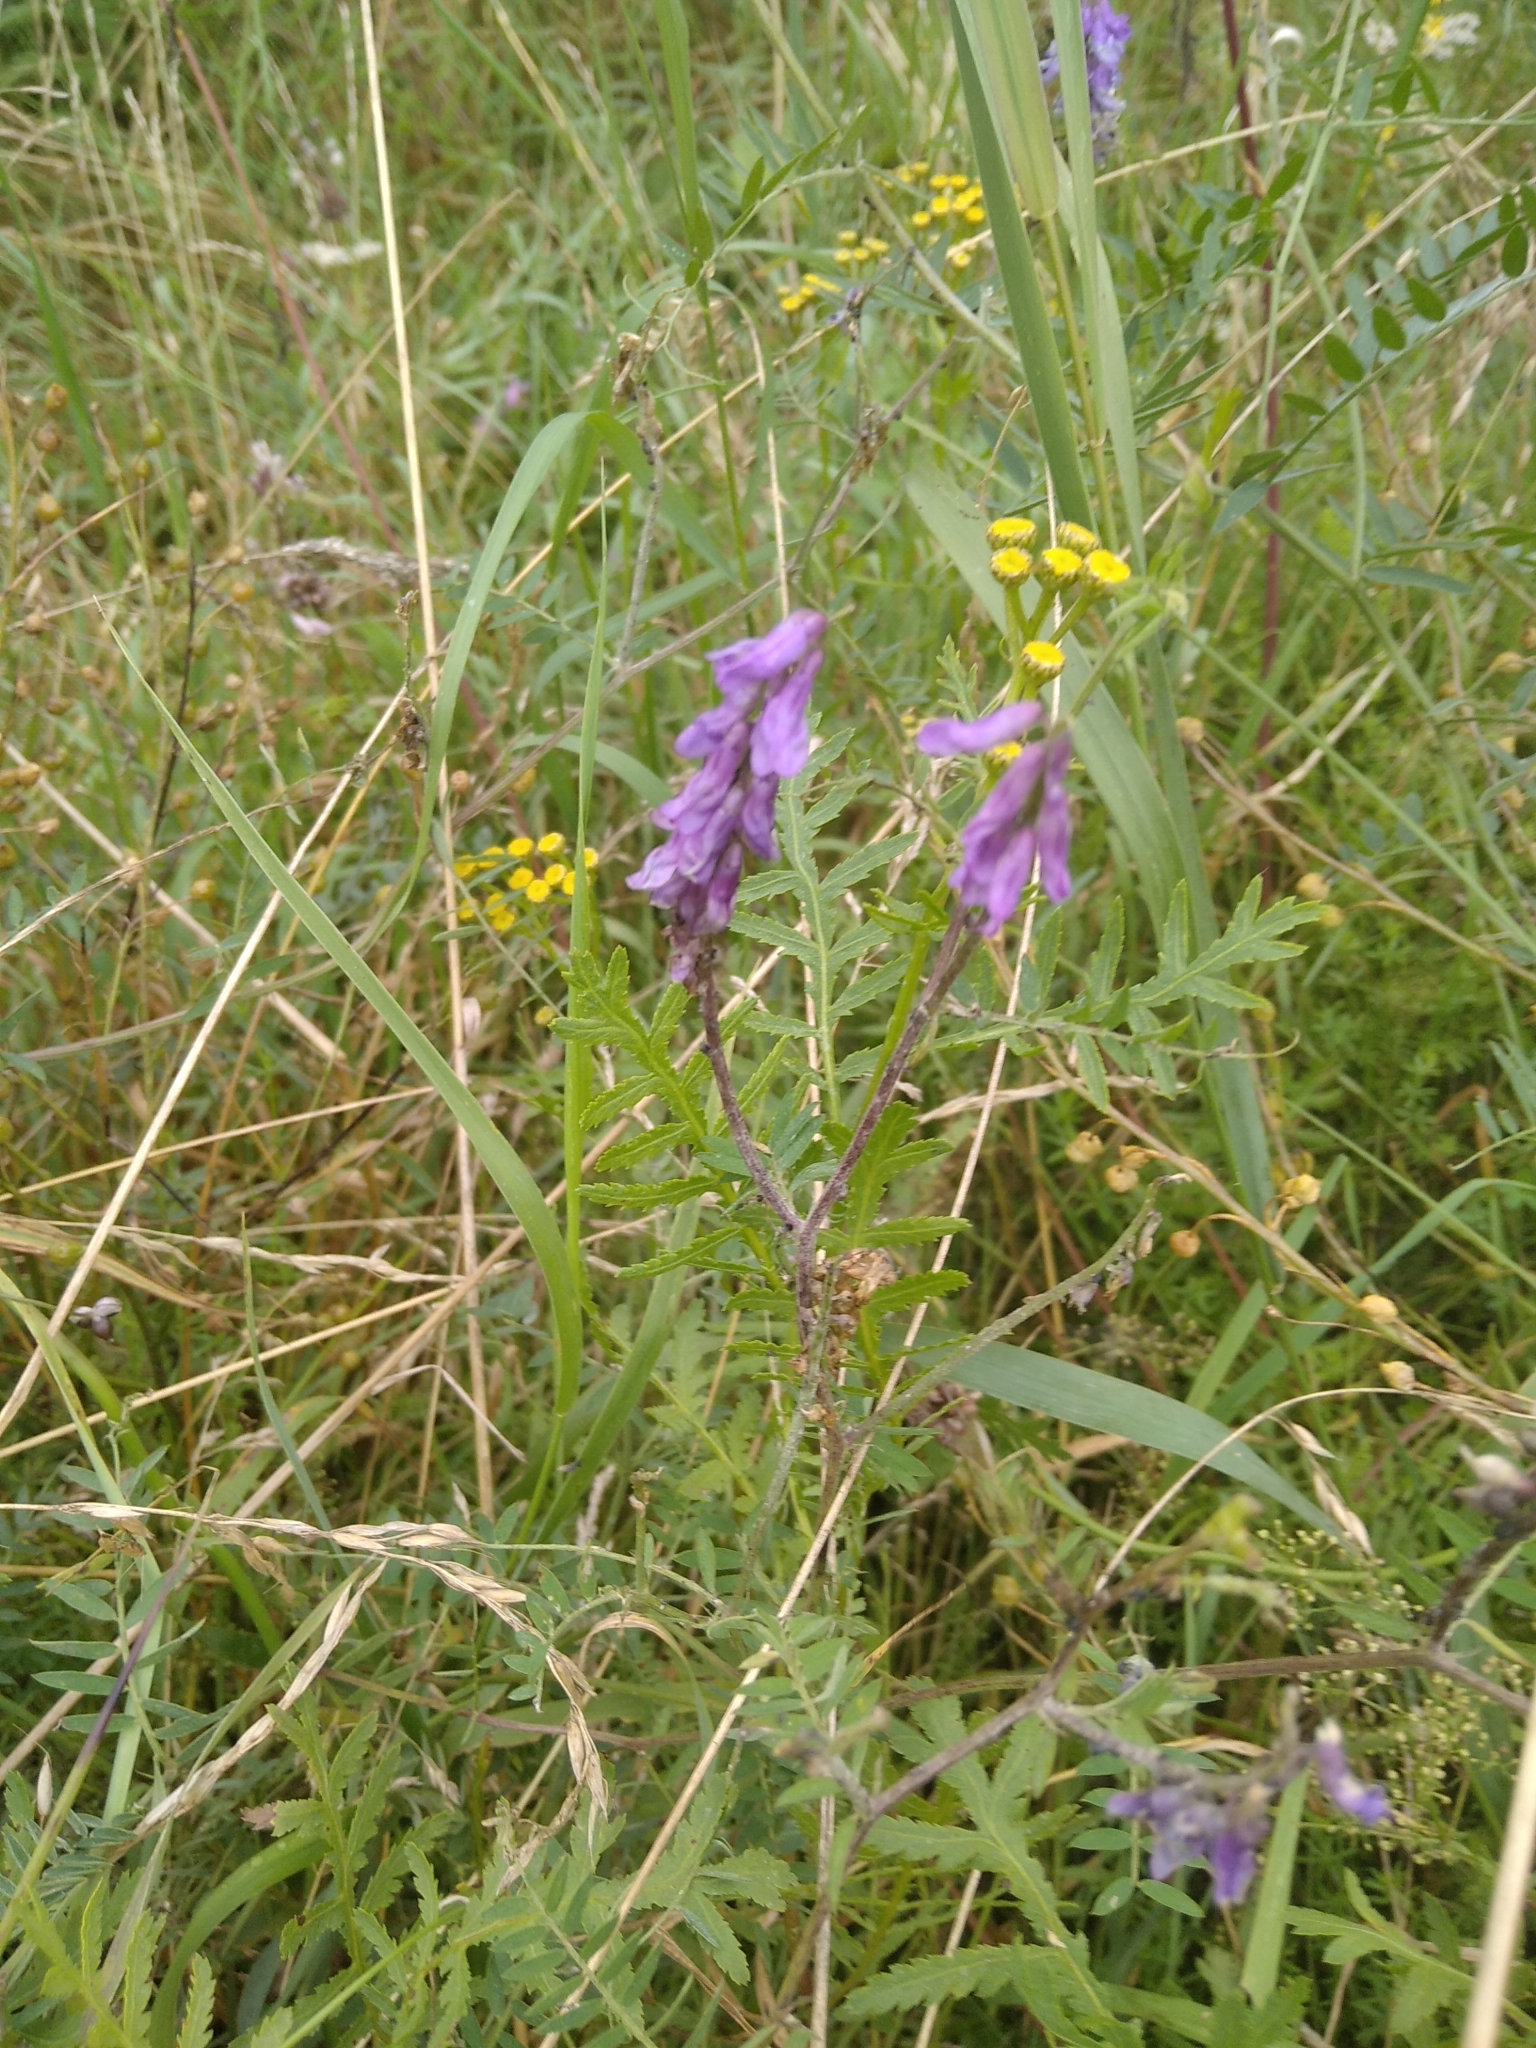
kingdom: Plantae
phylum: Tracheophyta
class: Magnoliopsida
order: Fabales
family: Fabaceae
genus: Vicia
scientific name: Vicia cracca
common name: Bird vetch
